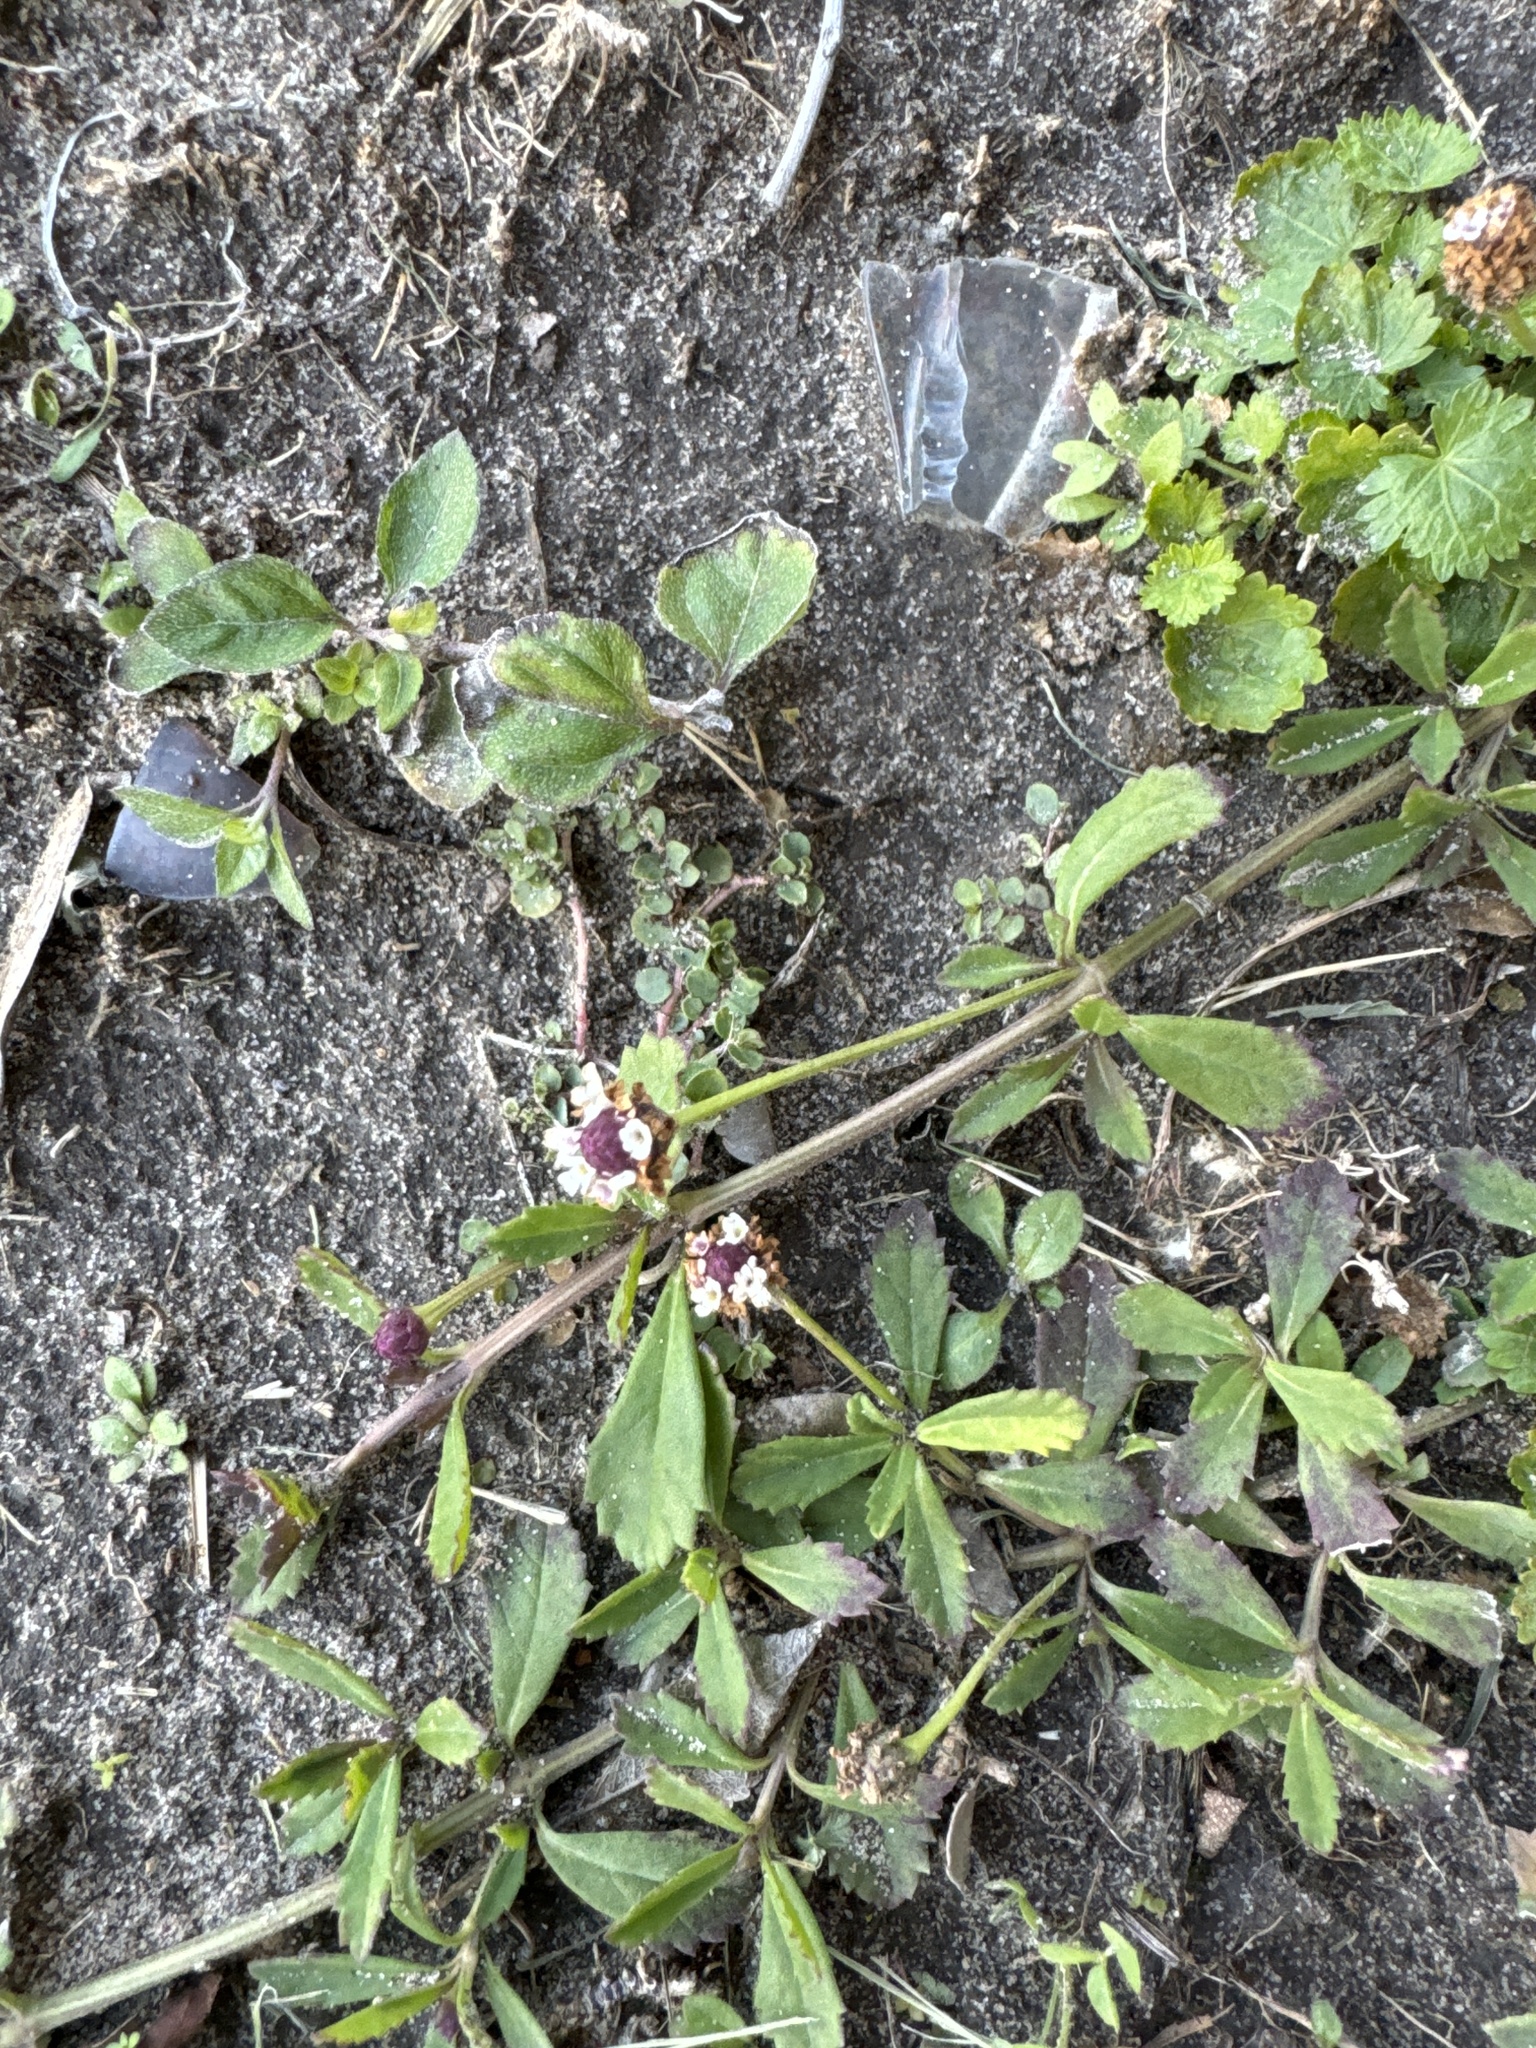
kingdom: Plantae
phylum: Tracheophyta
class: Magnoliopsida
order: Lamiales
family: Verbenaceae
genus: Phyla
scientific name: Phyla nodiflora
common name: Frogfruit
